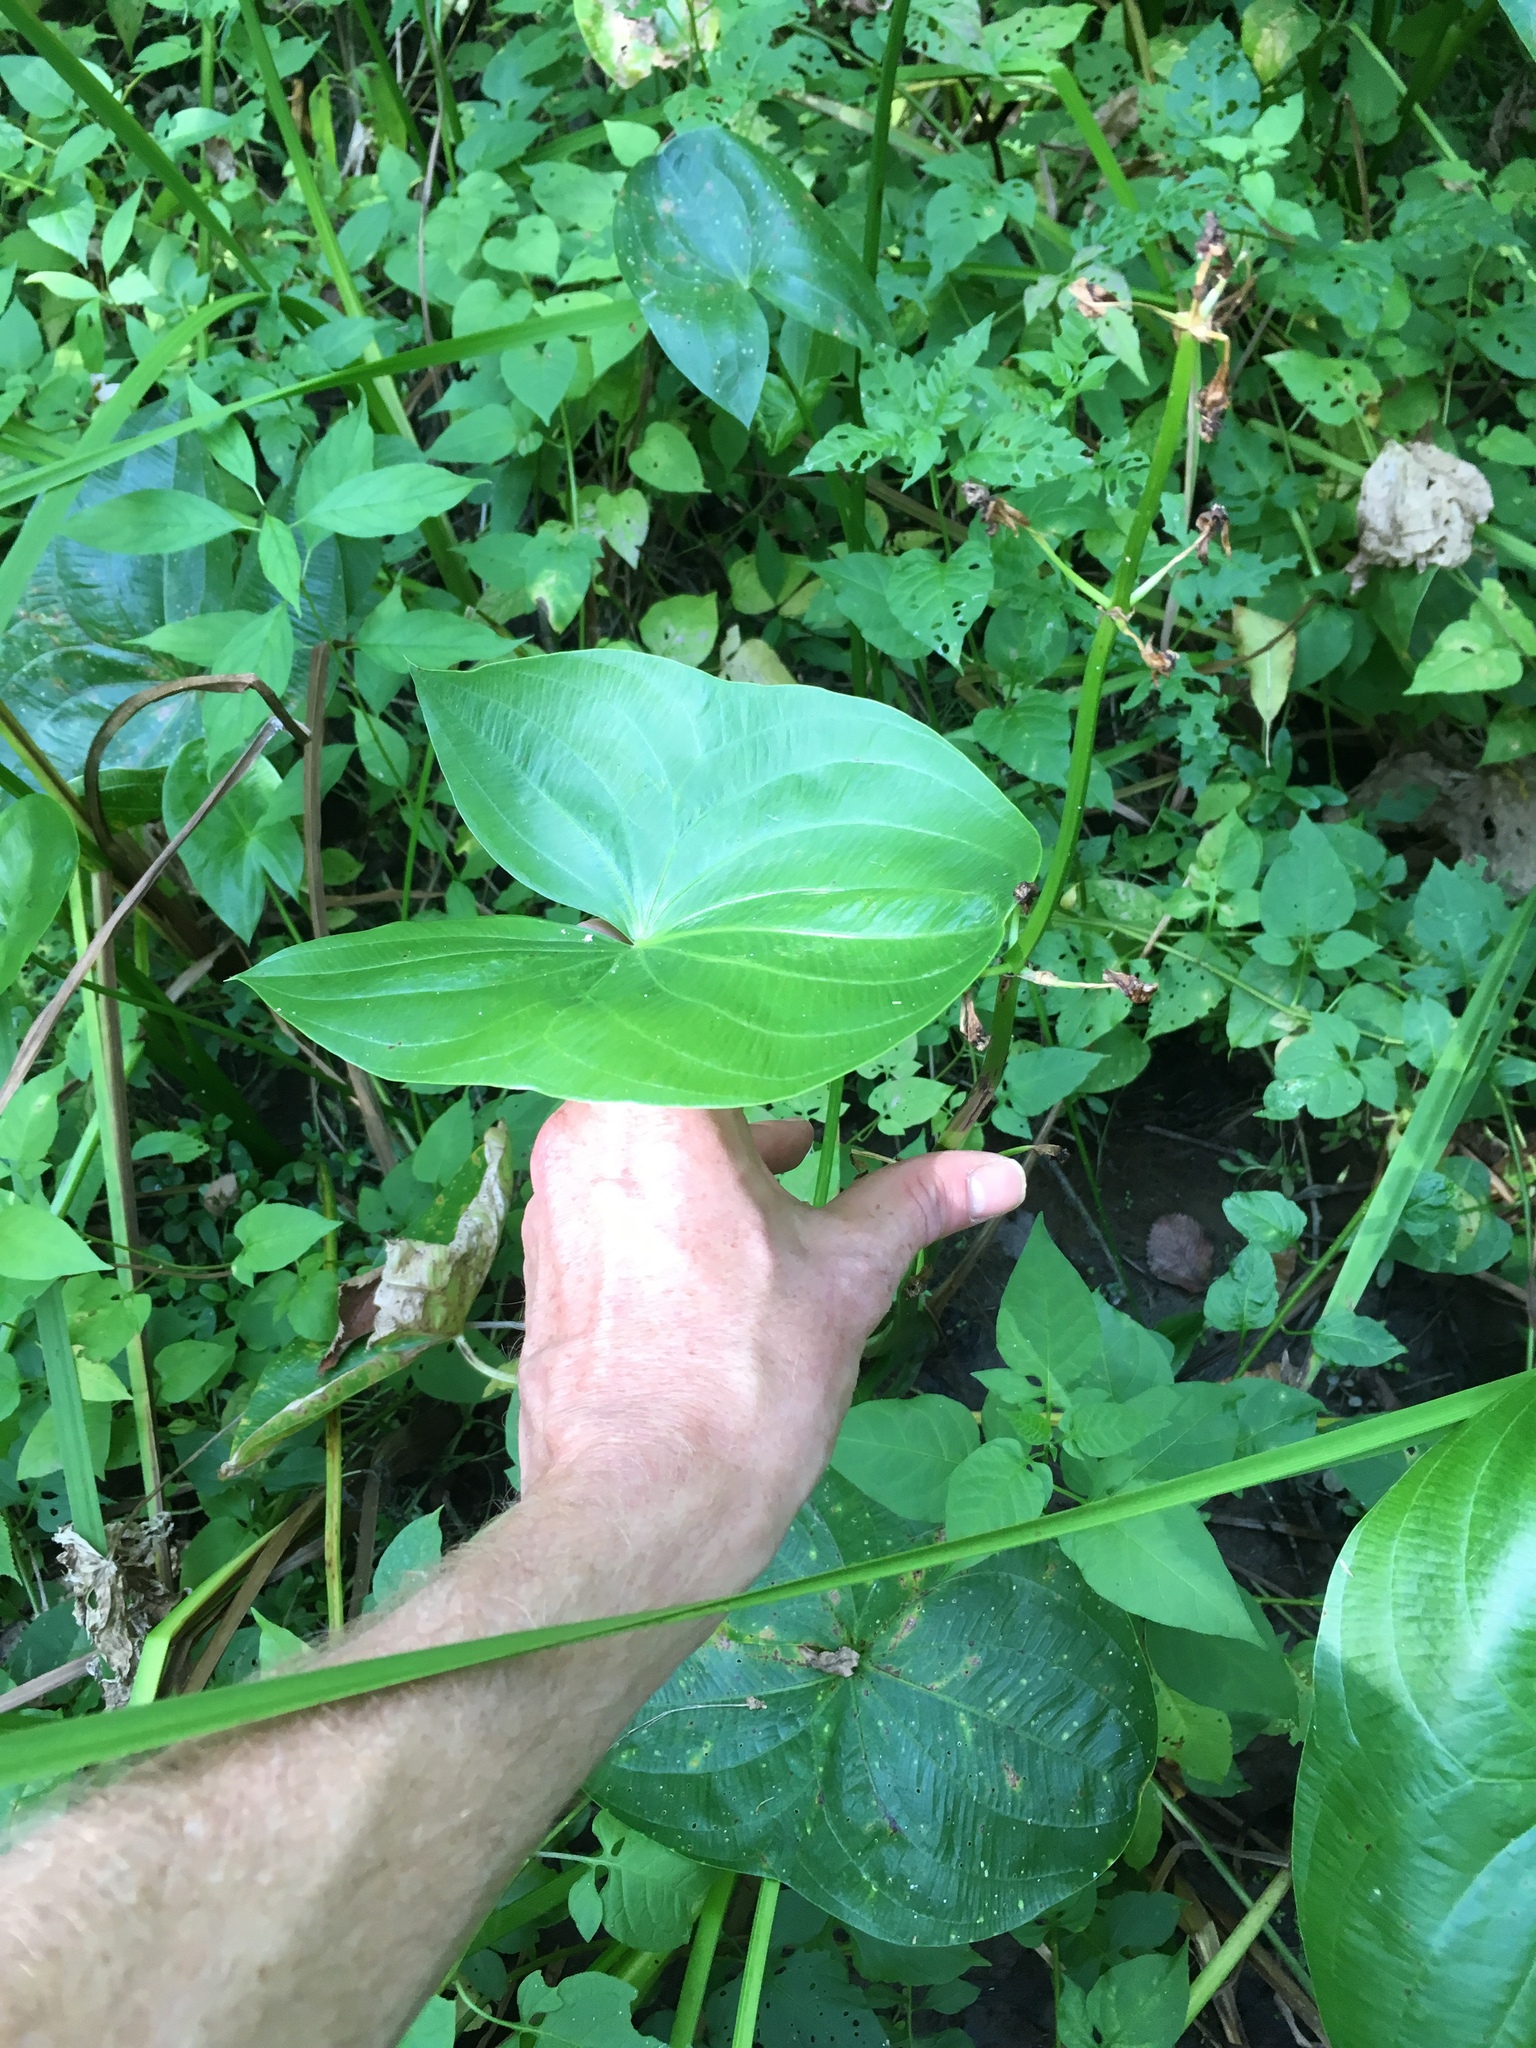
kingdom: Plantae
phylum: Tracheophyta
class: Liliopsida
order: Alismatales
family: Alismataceae
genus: Sagittaria
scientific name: Sagittaria latifolia
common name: Duck-potato
